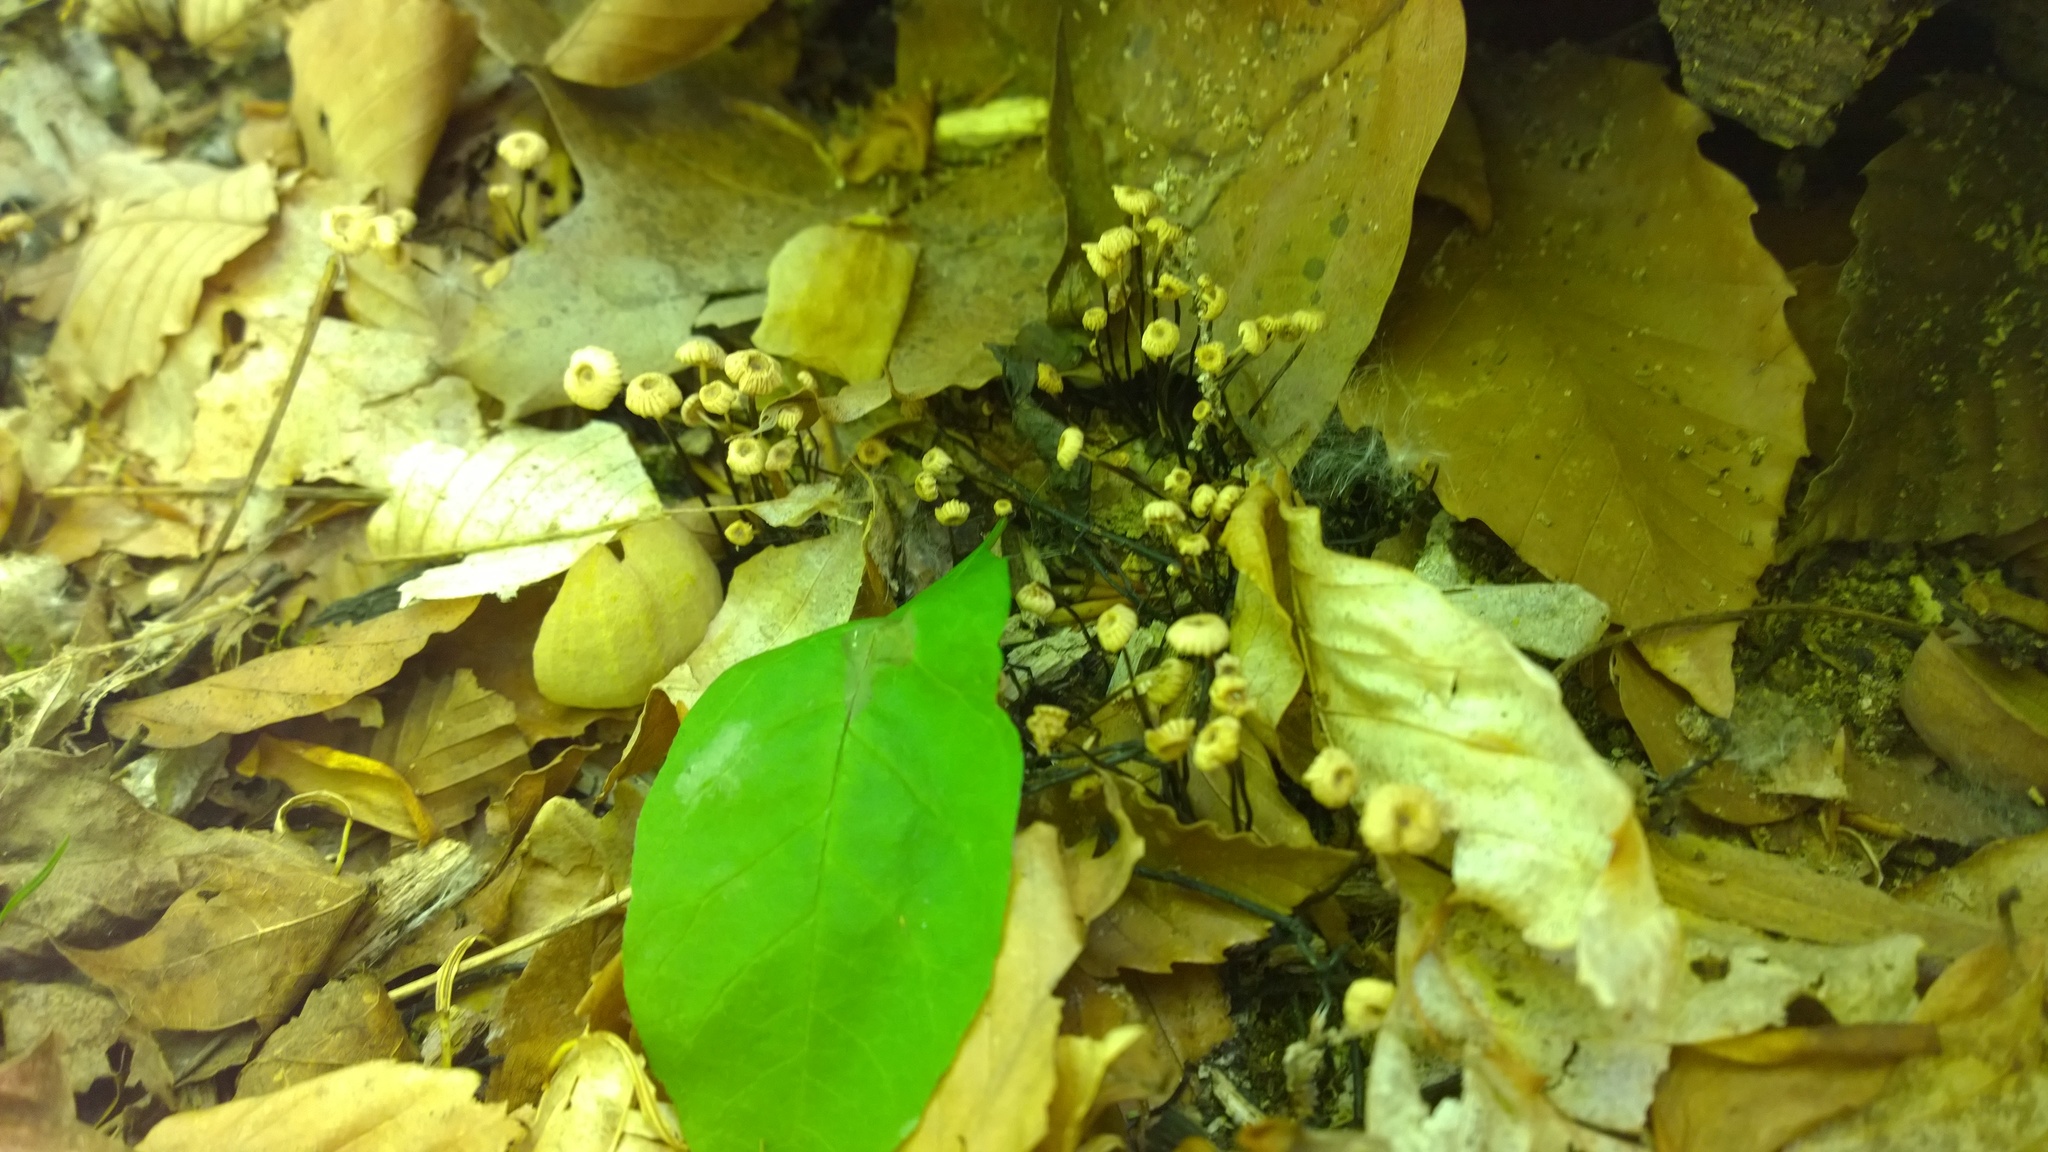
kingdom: Fungi
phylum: Basidiomycota
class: Agaricomycetes
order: Agaricales
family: Marasmiaceae
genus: Marasmius
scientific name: Marasmius rotula
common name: Collared parachute
